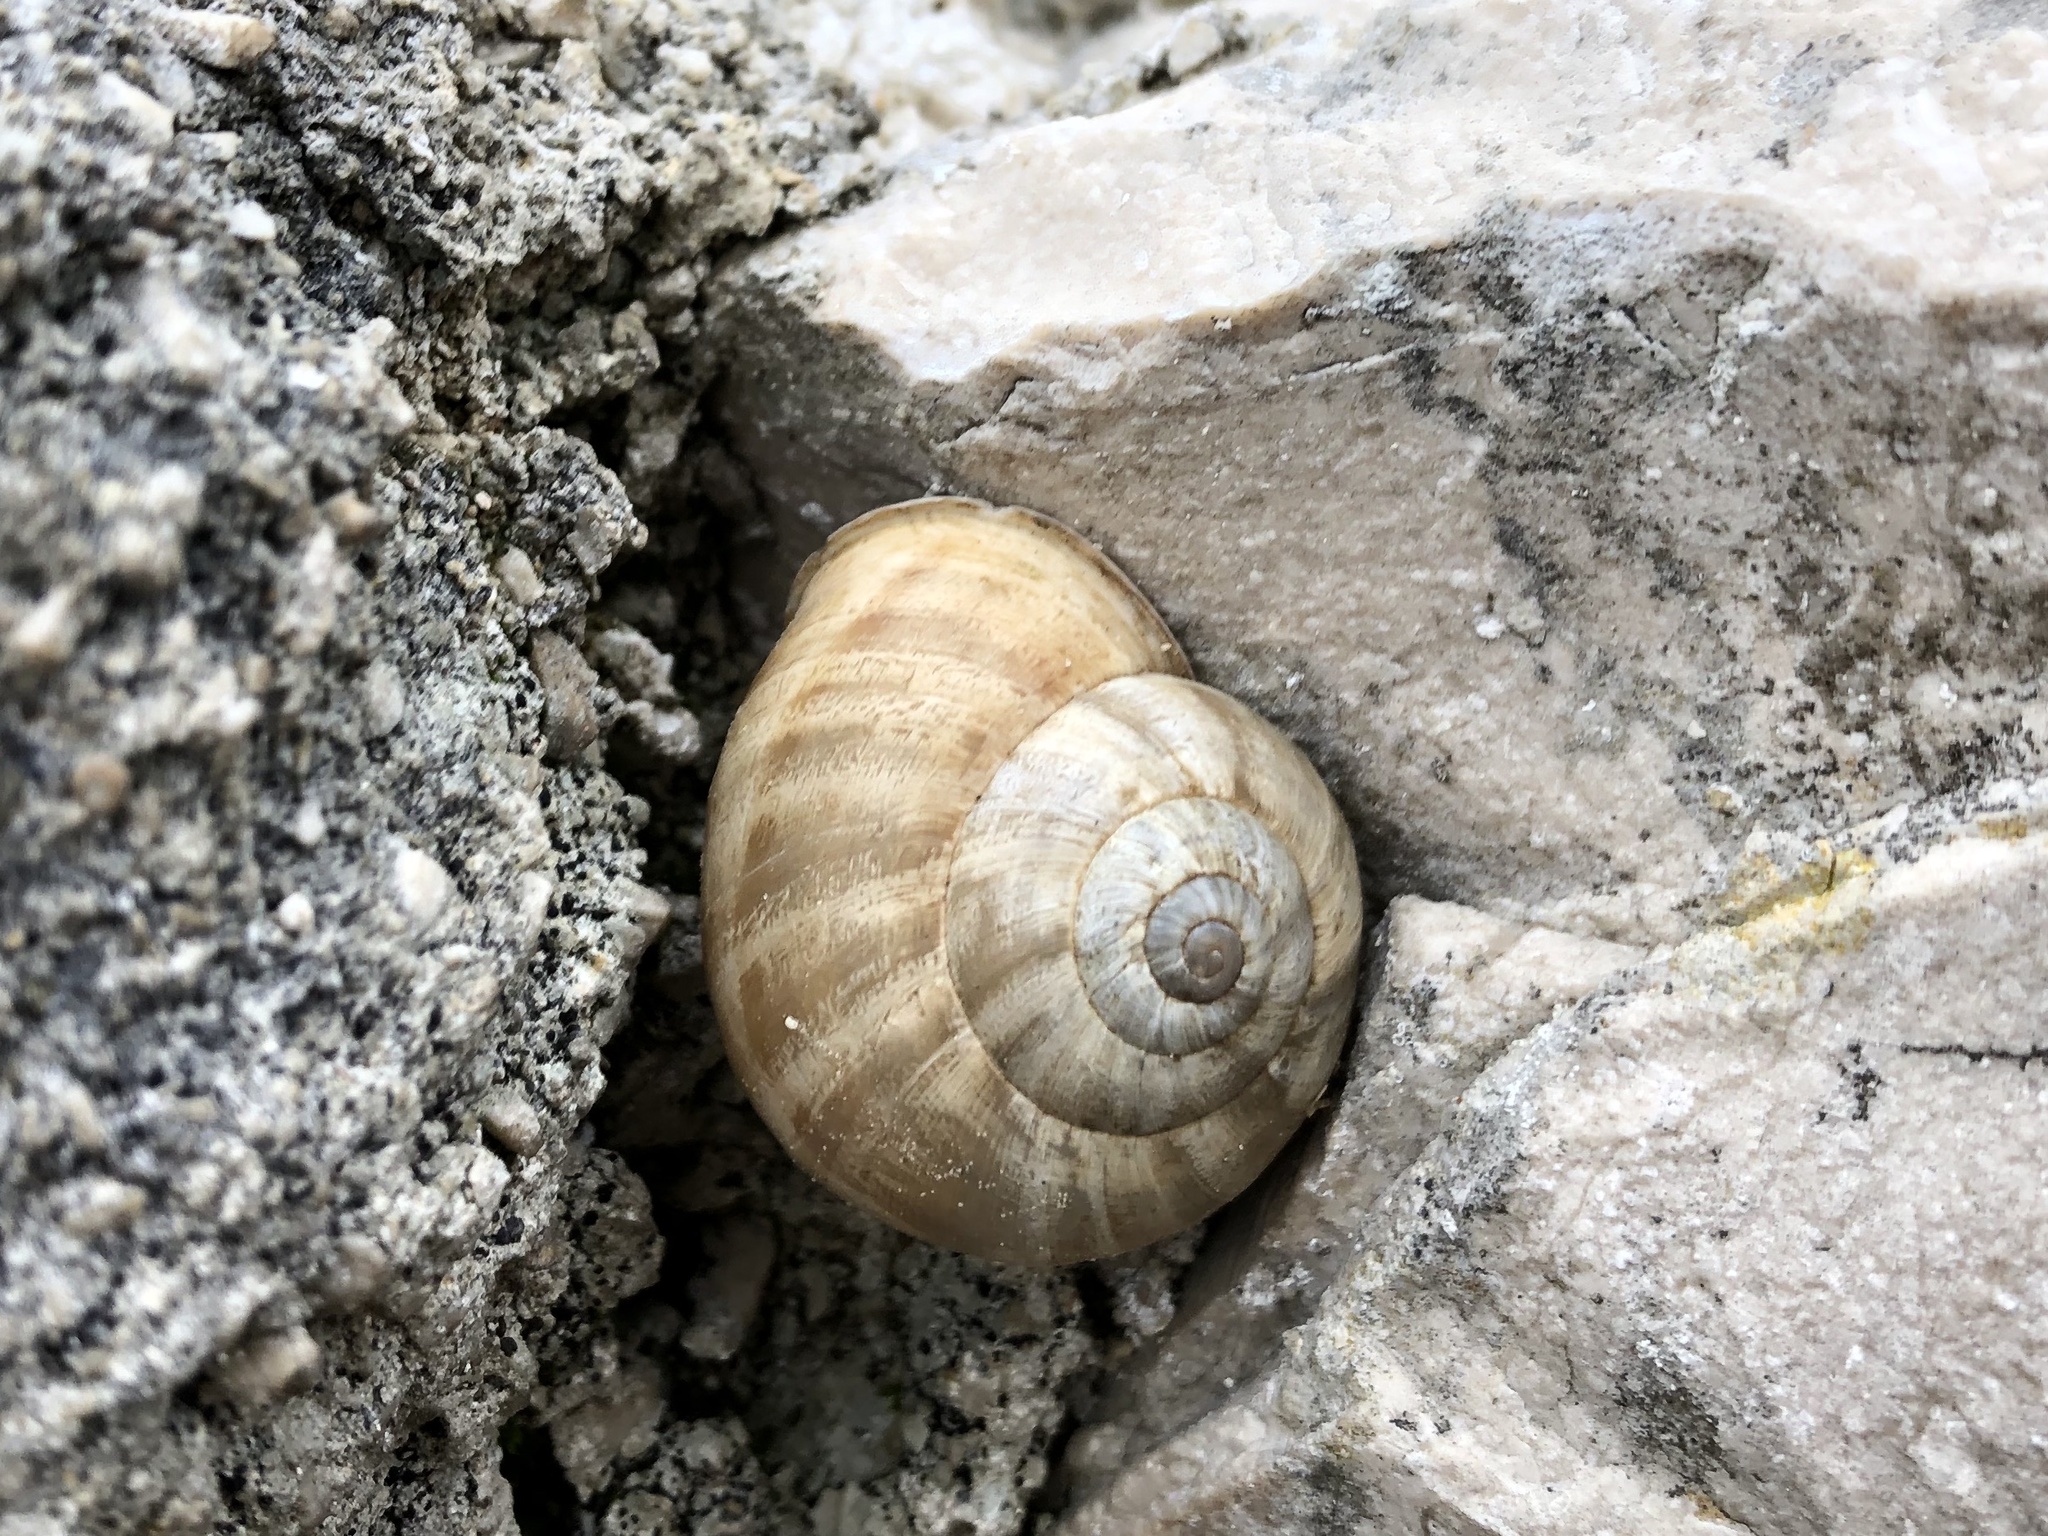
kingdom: Animalia
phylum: Mollusca
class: Gastropoda
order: Stylommatophora
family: Helicidae
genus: Eobania
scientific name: Eobania vermiculata
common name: Chocolateband snail
